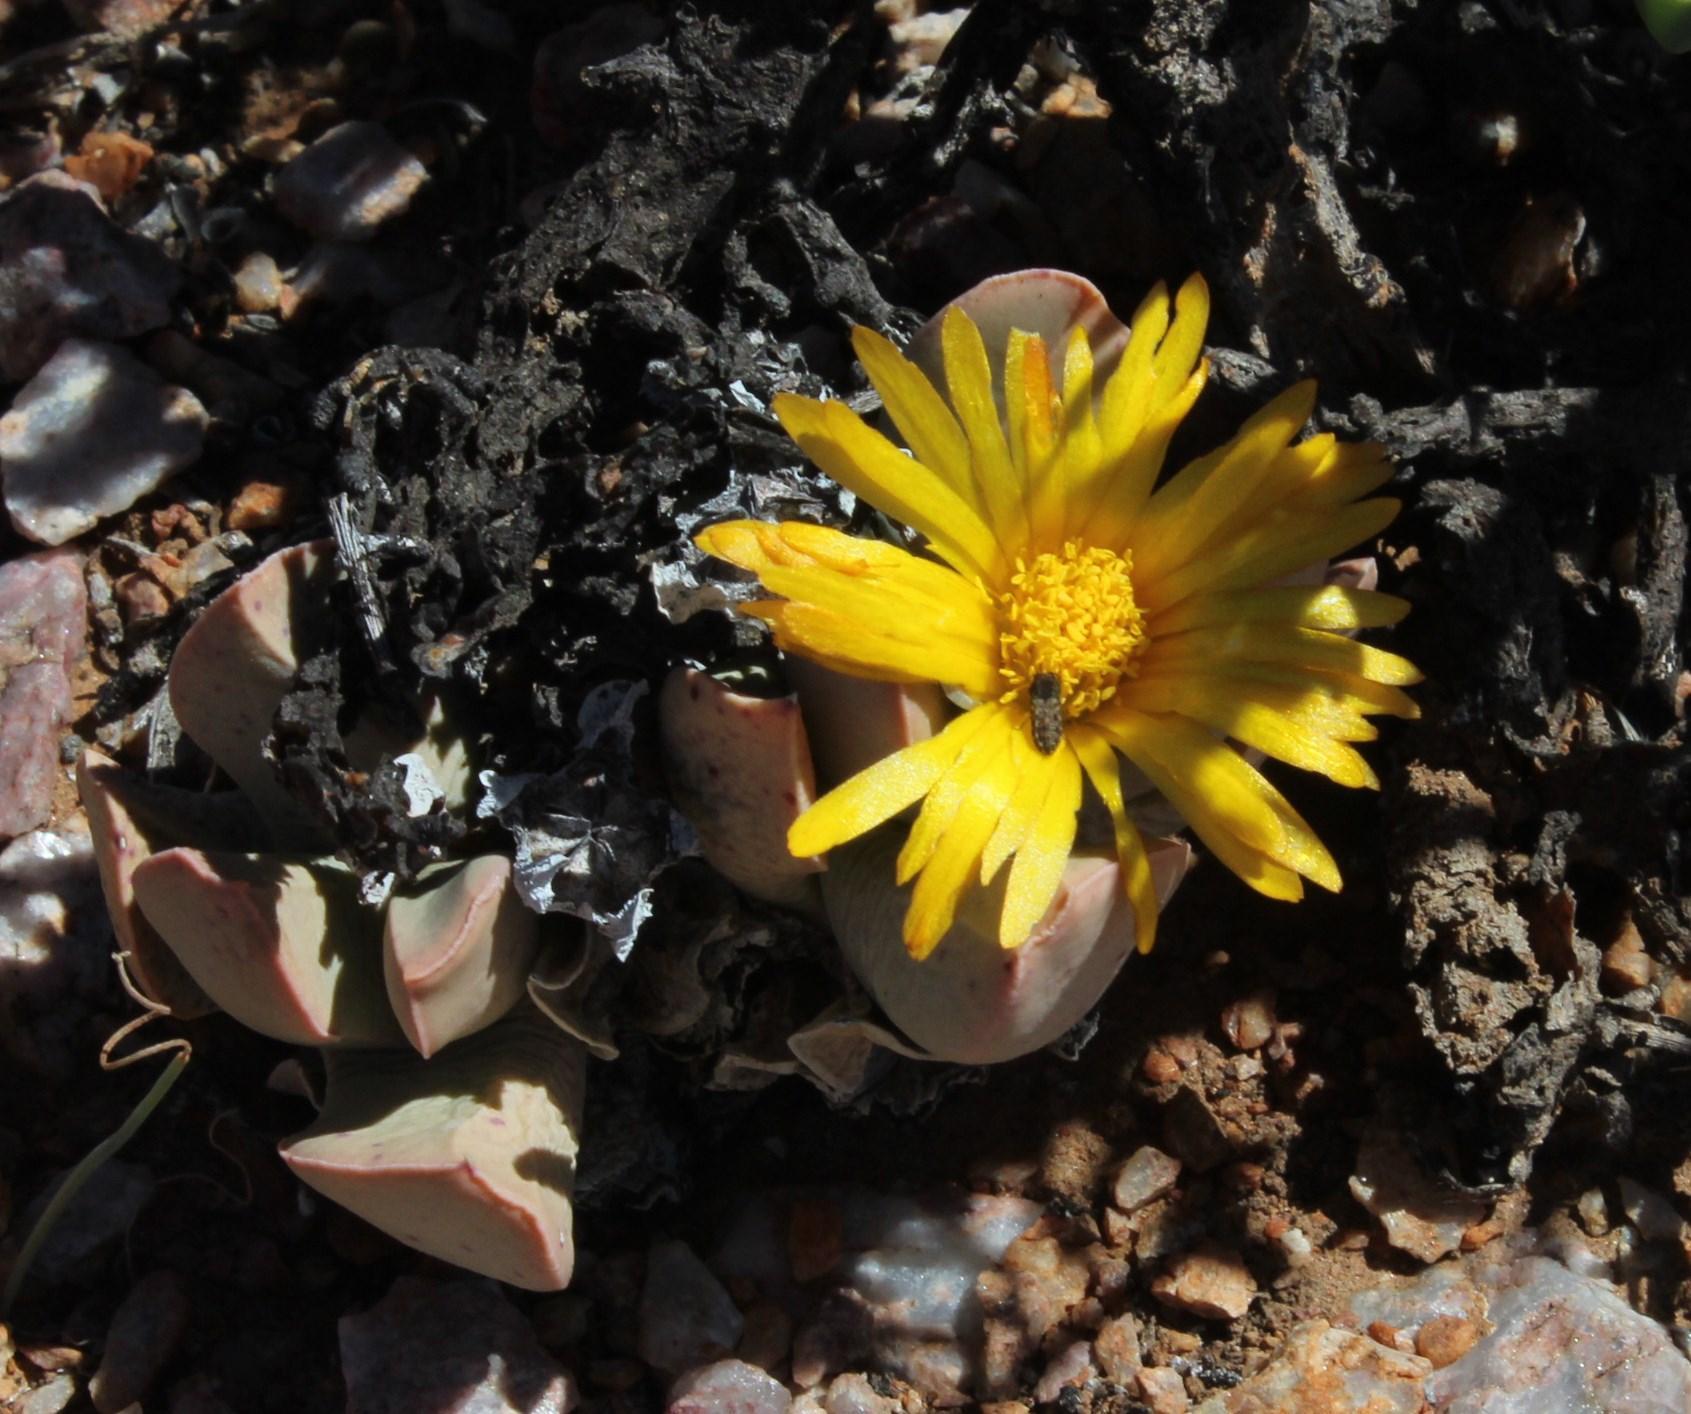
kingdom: Plantae
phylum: Tracheophyta
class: Magnoliopsida
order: Caryophyllales
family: Aizoaceae
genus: Schwantesia
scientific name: Schwantesia herrei
